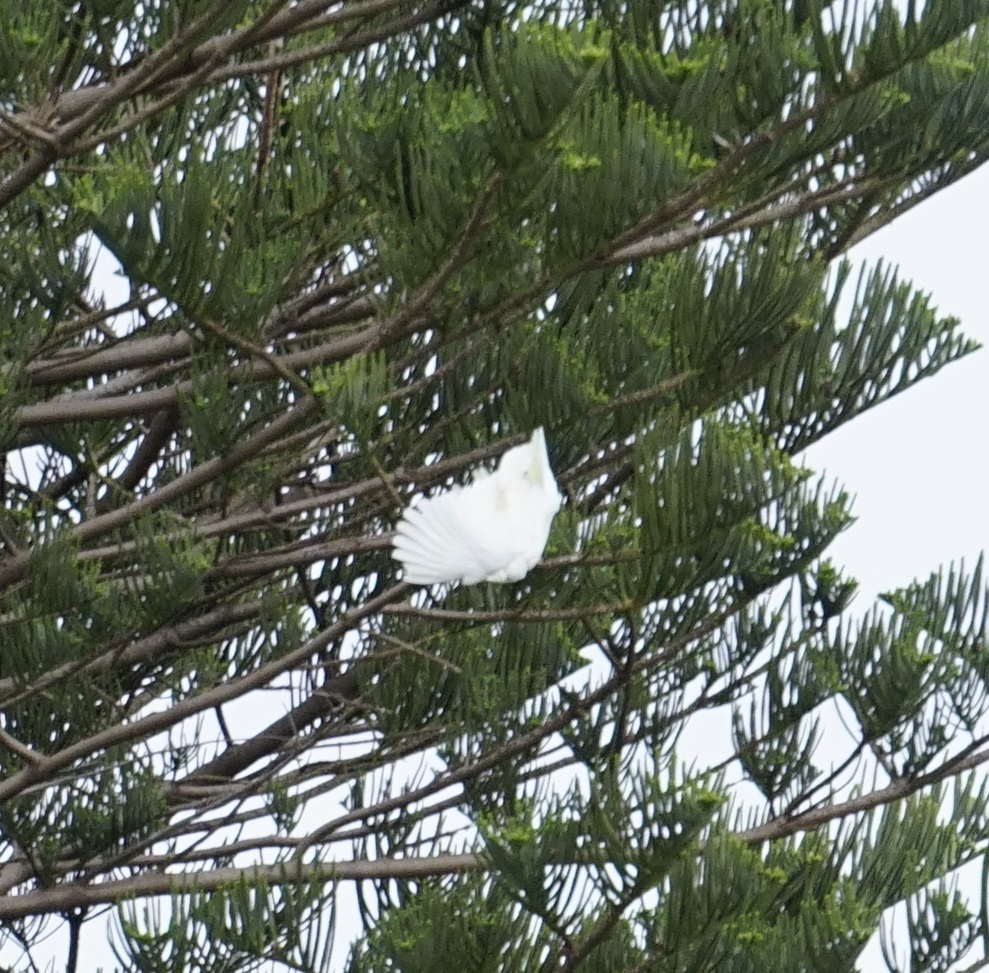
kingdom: Animalia
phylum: Chordata
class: Aves
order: Psittaciformes
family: Psittacidae
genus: Cacatua
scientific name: Cacatua galerita
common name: Sulphur-crested cockatoo
